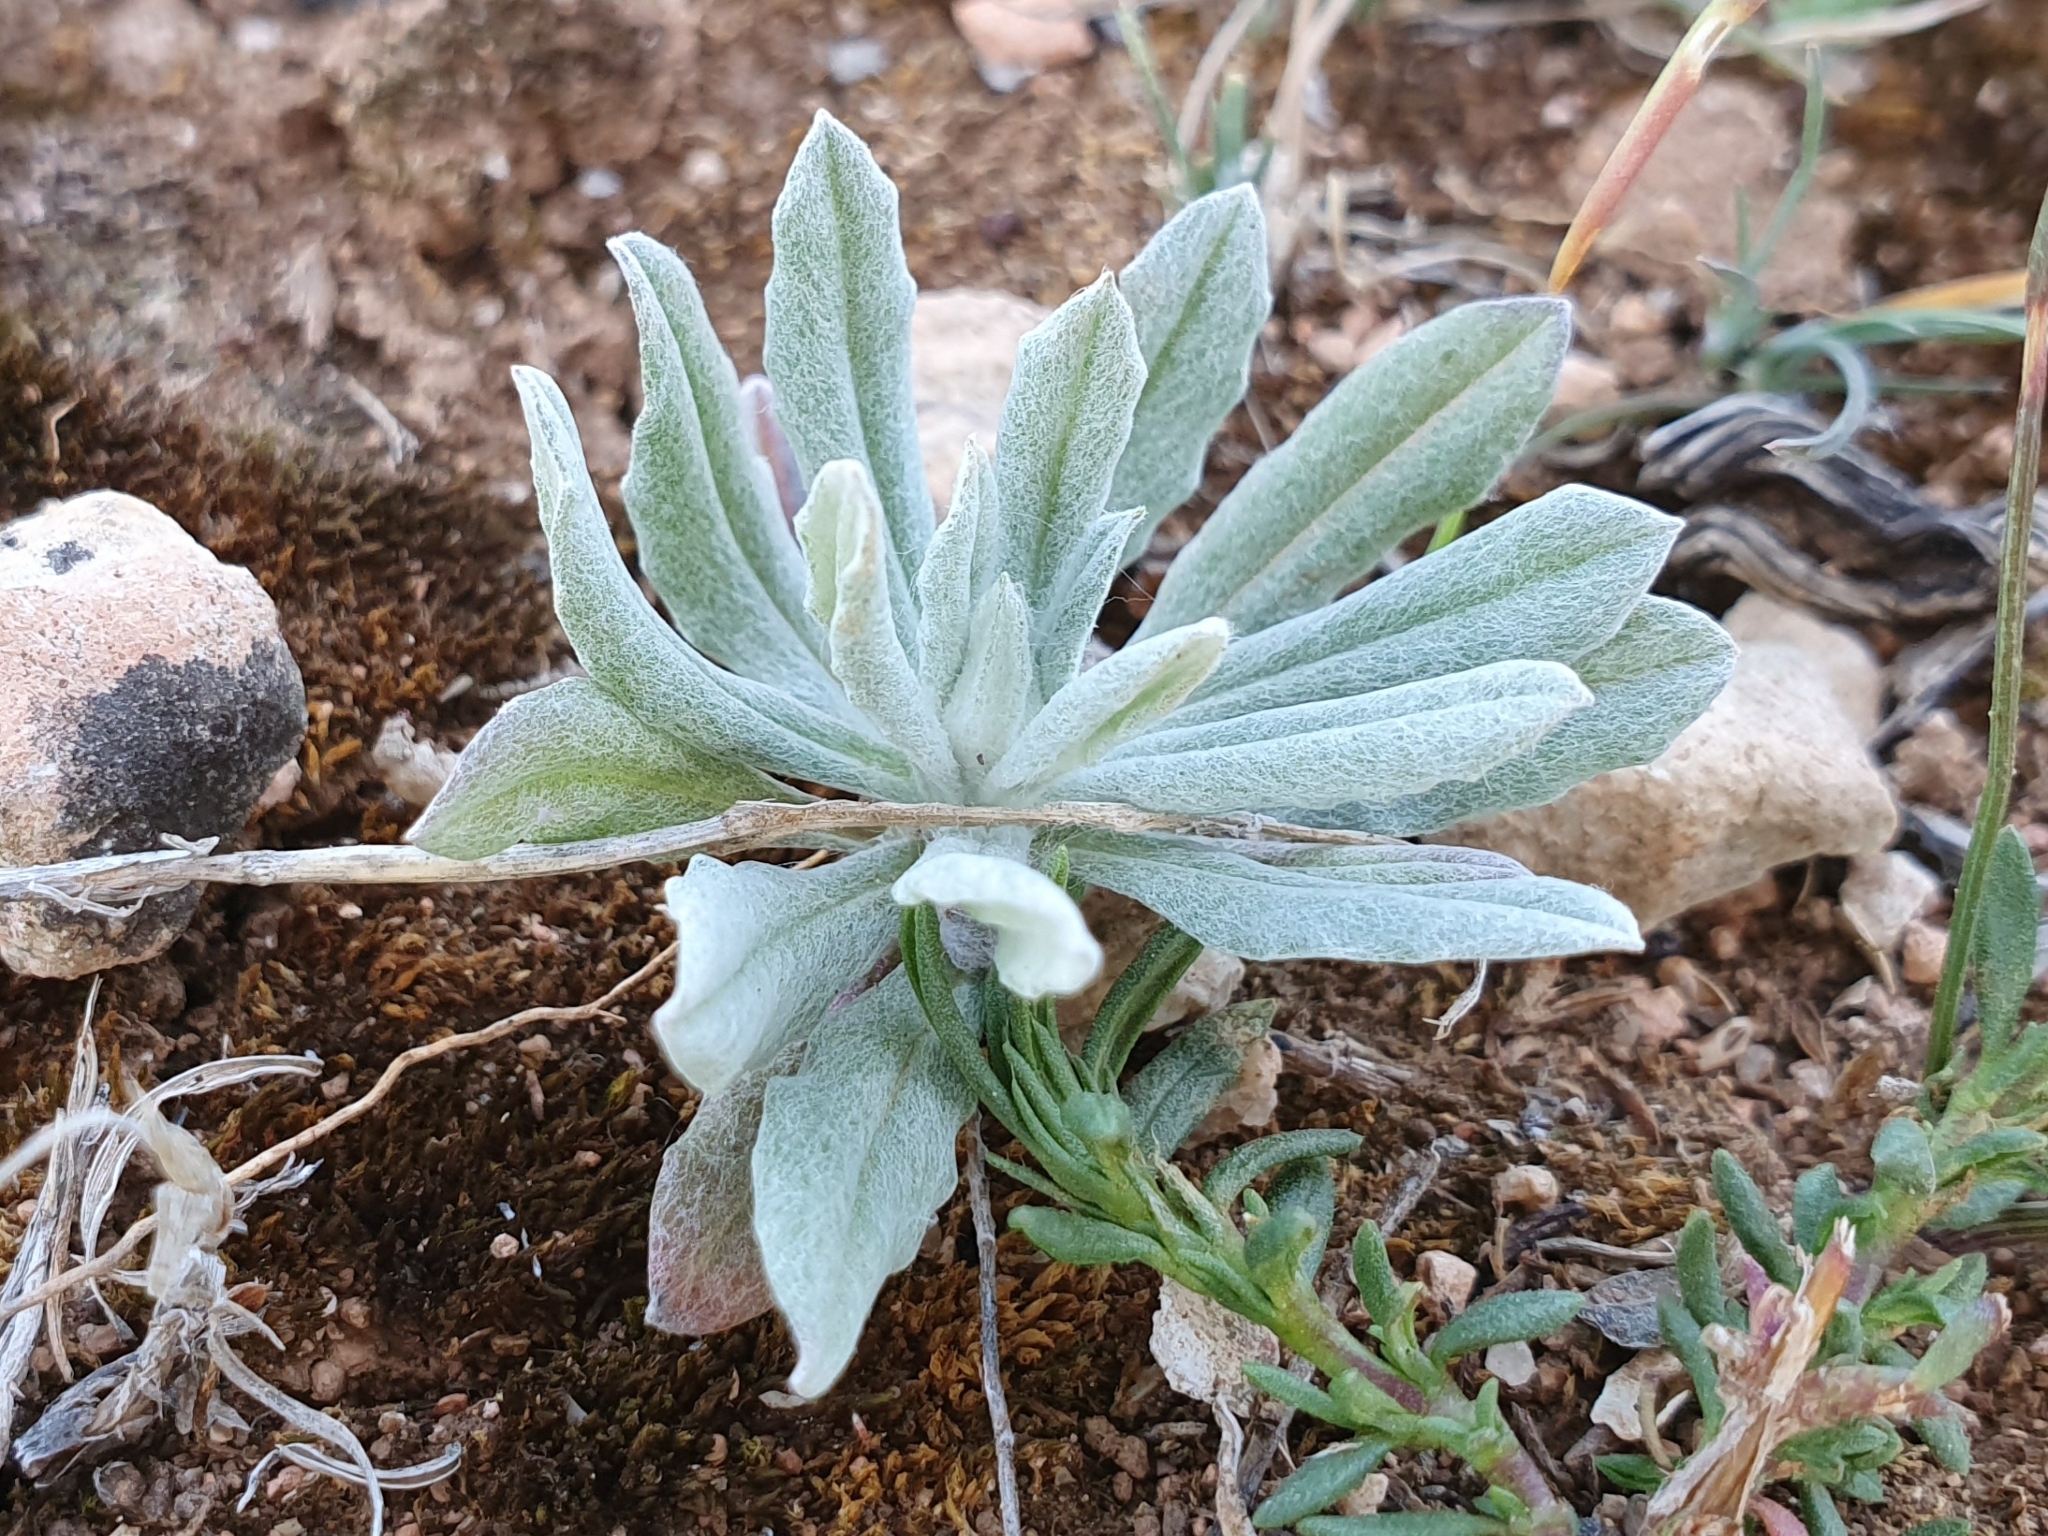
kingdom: Plantae
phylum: Tracheophyta
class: Magnoliopsida
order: Asterales
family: Asteraceae
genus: Xeranthemum
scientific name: Xeranthemum inapertum
